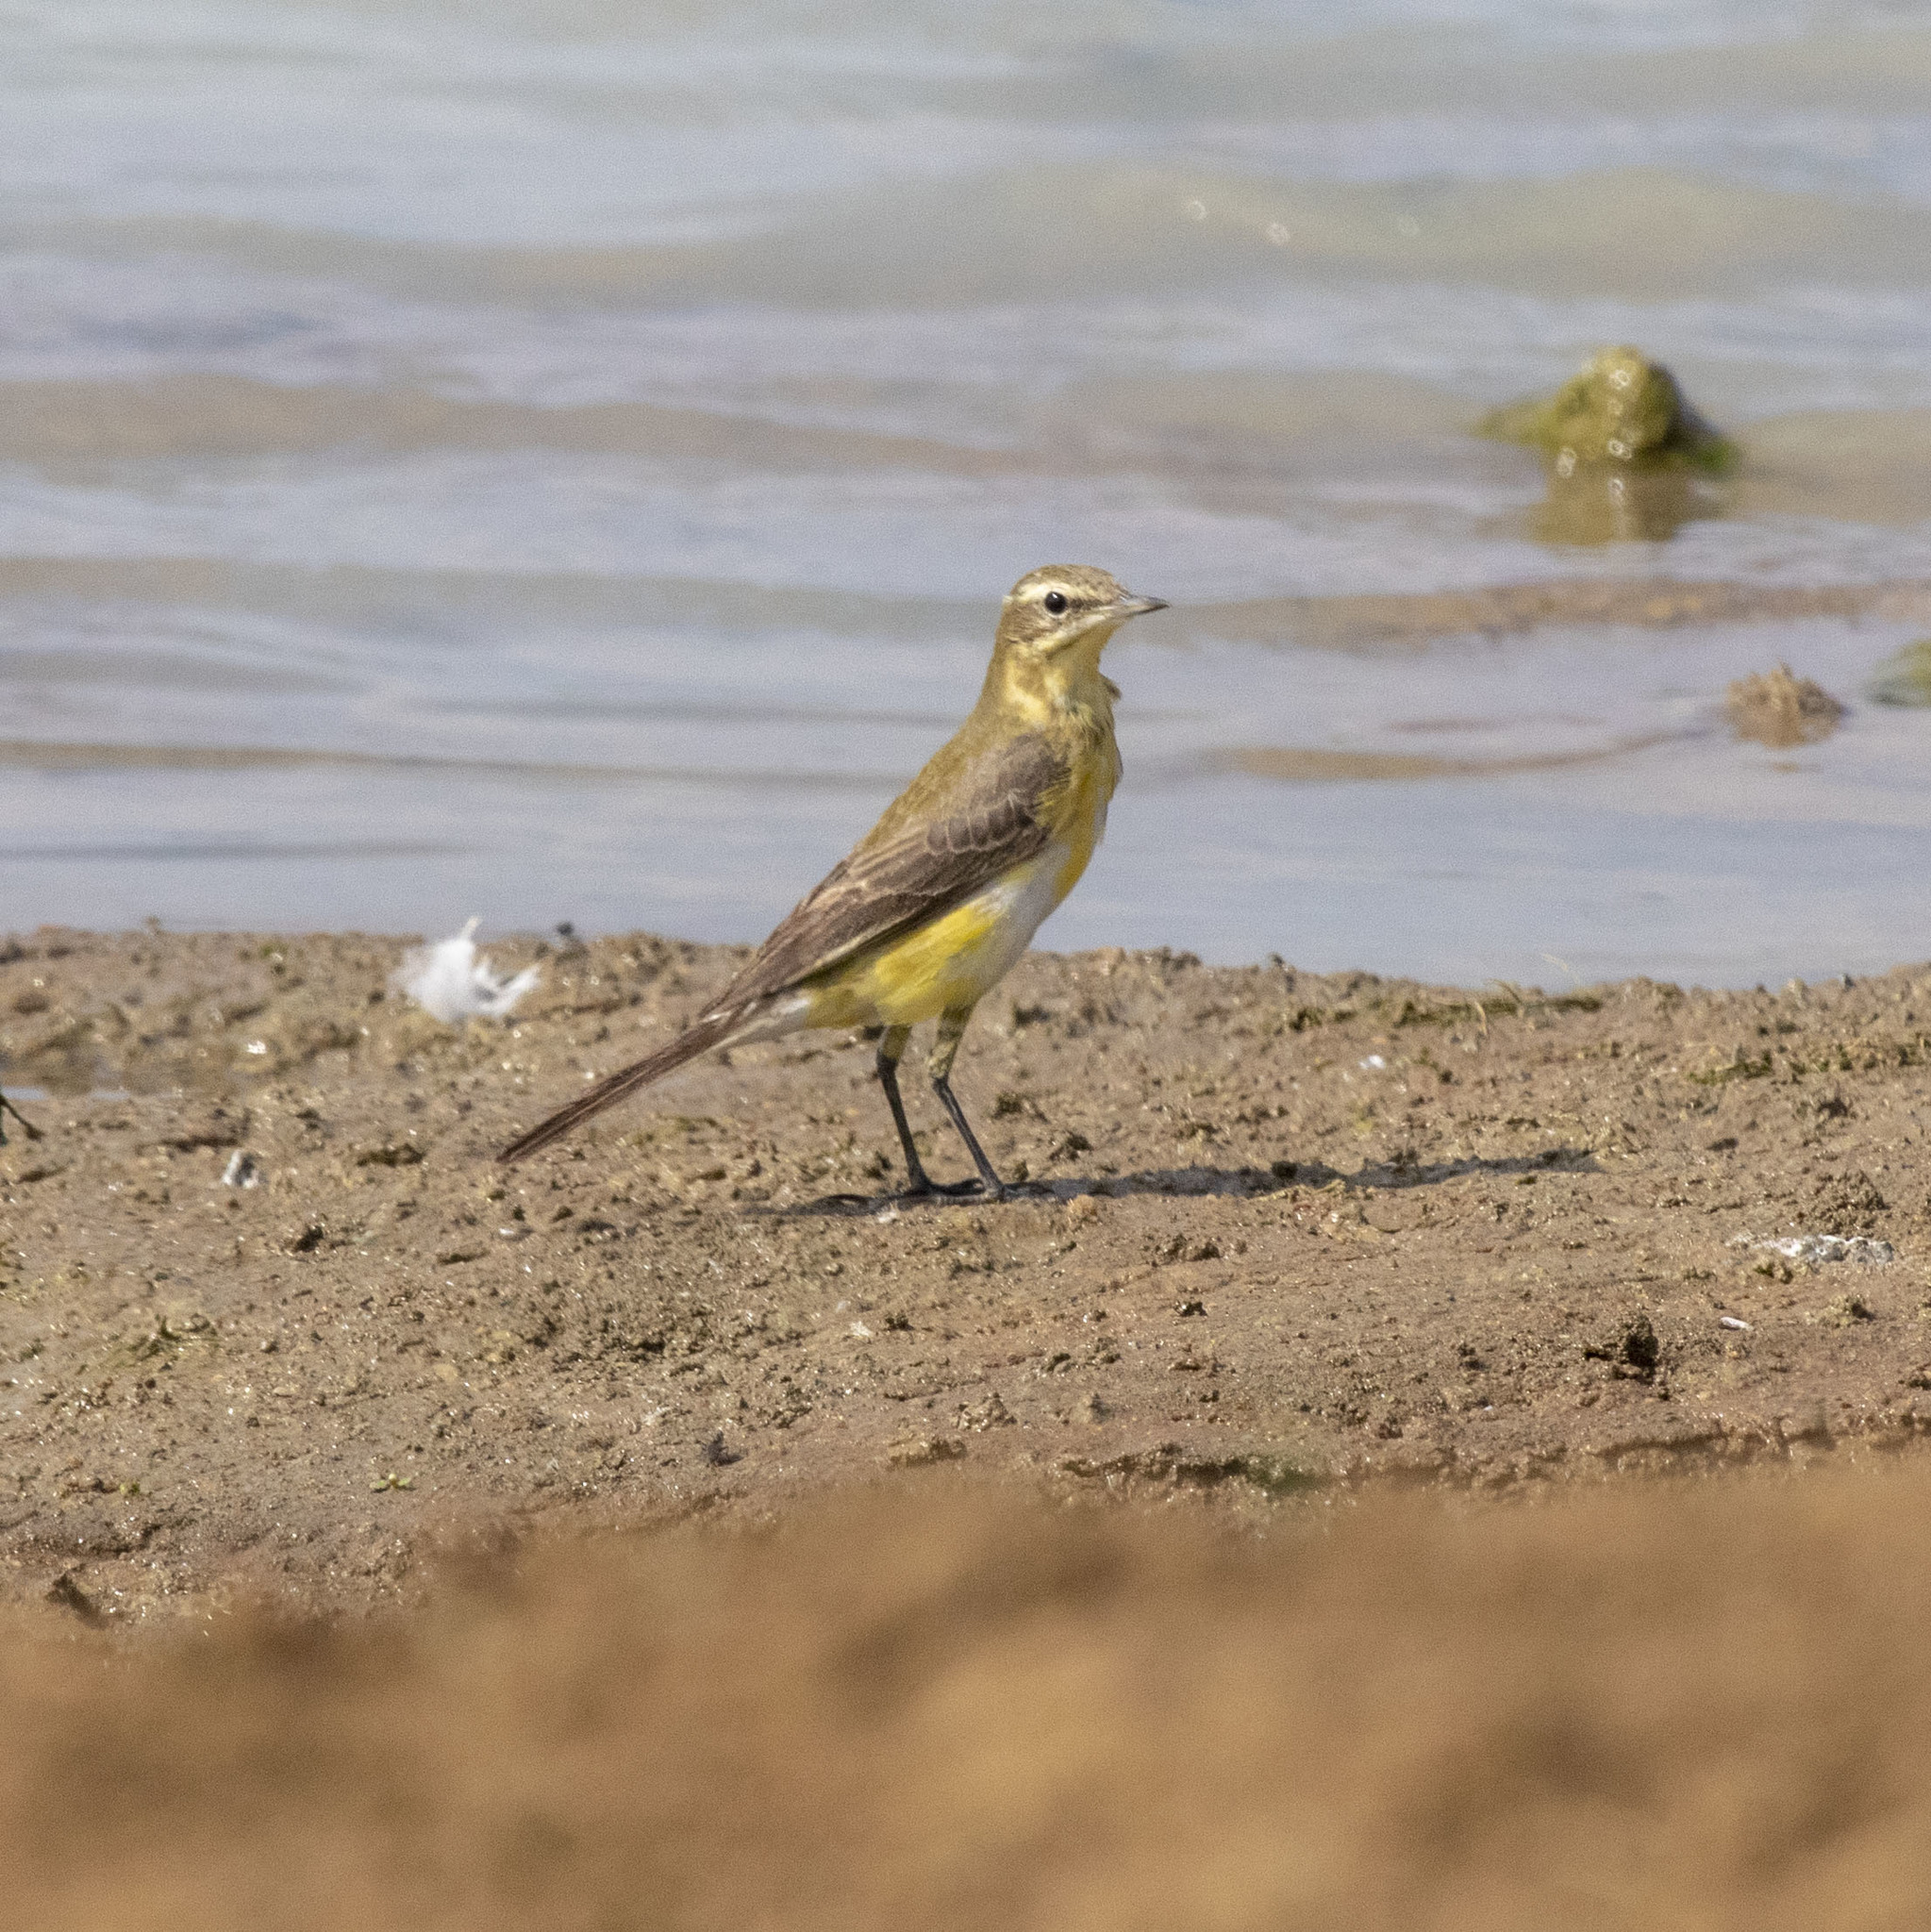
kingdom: Animalia
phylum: Chordata
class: Aves
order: Passeriformes
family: Motacillidae
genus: Motacilla
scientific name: Motacilla flava
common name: Western yellow wagtail
